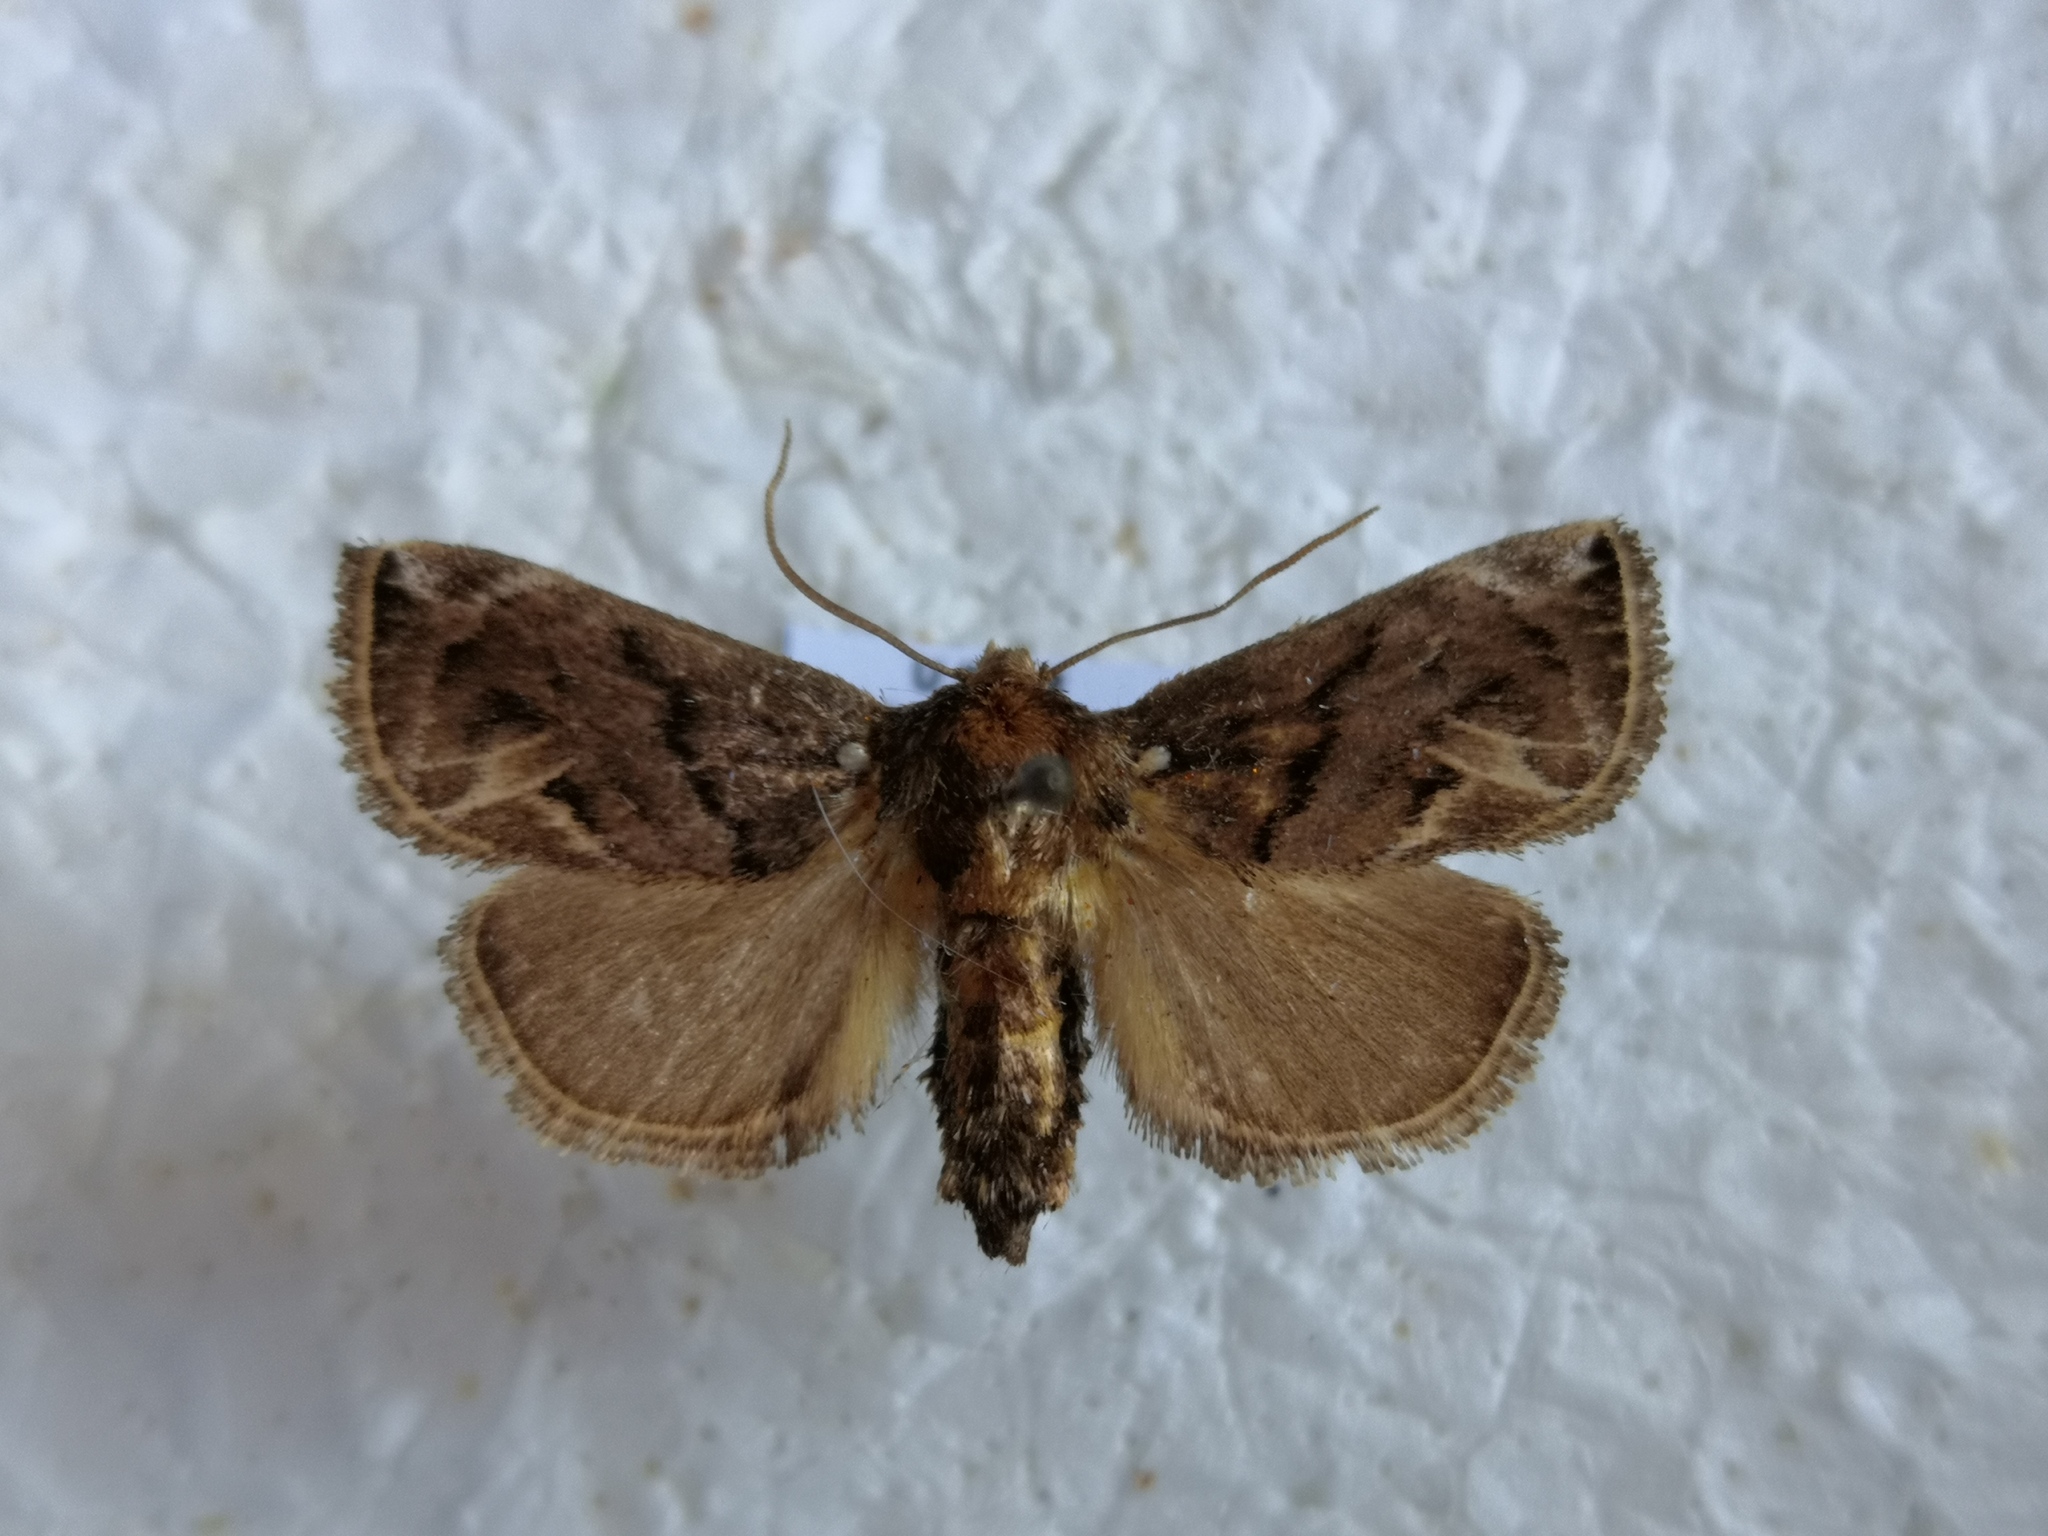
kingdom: Animalia
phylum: Arthropoda
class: Insecta
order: Lepidoptera
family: Limacodidae
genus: Austrapoda
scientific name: Austrapoda dentatus
